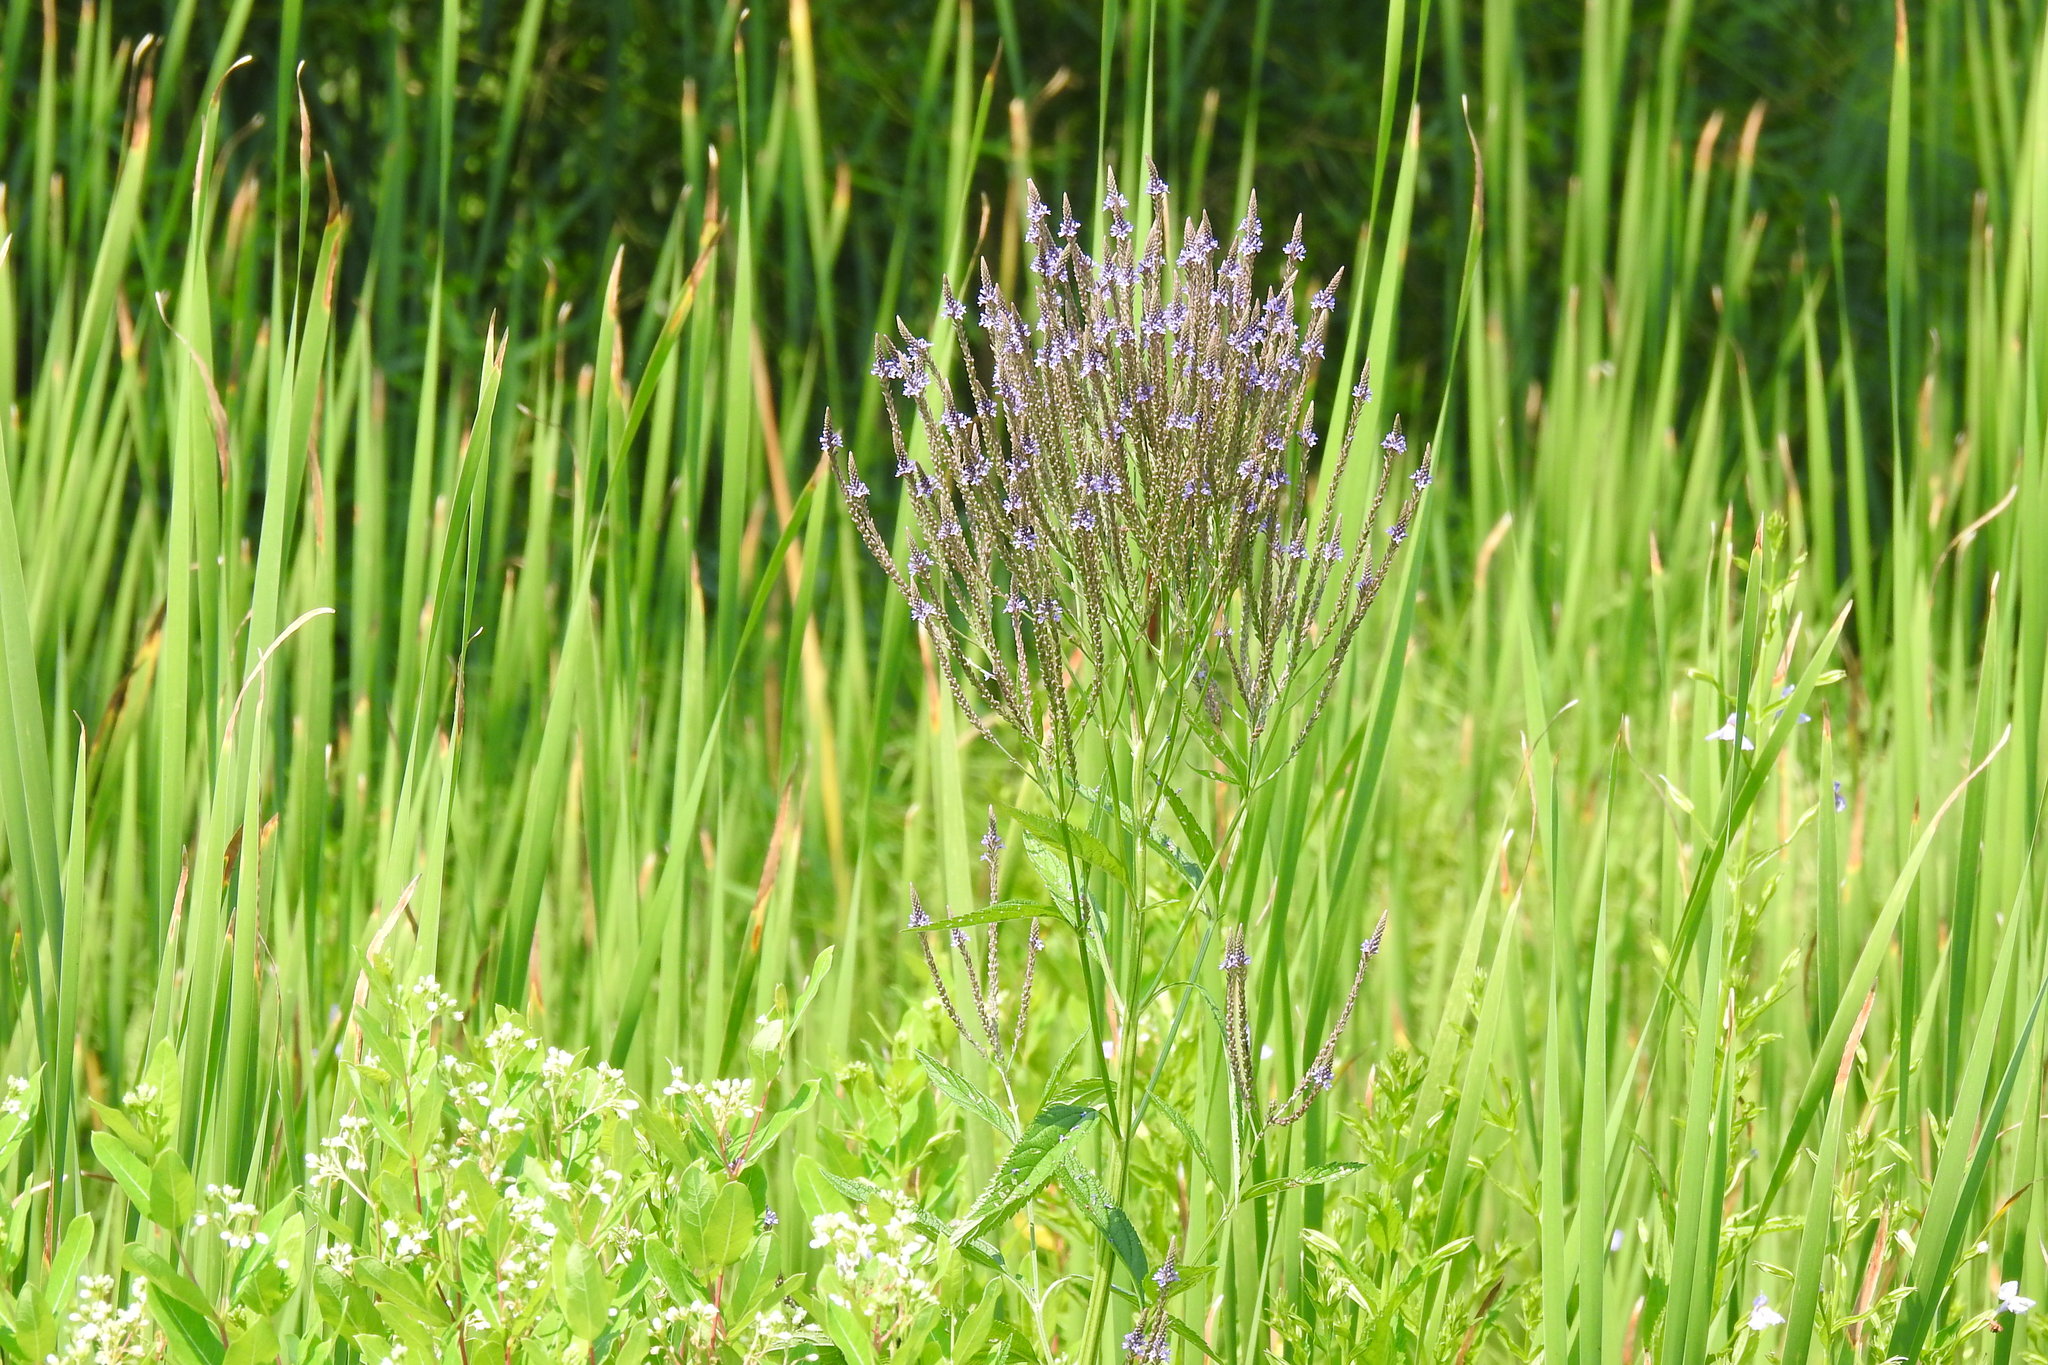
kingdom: Plantae
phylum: Tracheophyta
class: Magnoliopsida
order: Lamiales
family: Verbenaceae
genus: Verbena
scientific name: Verbena hastata
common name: American blue vervain
